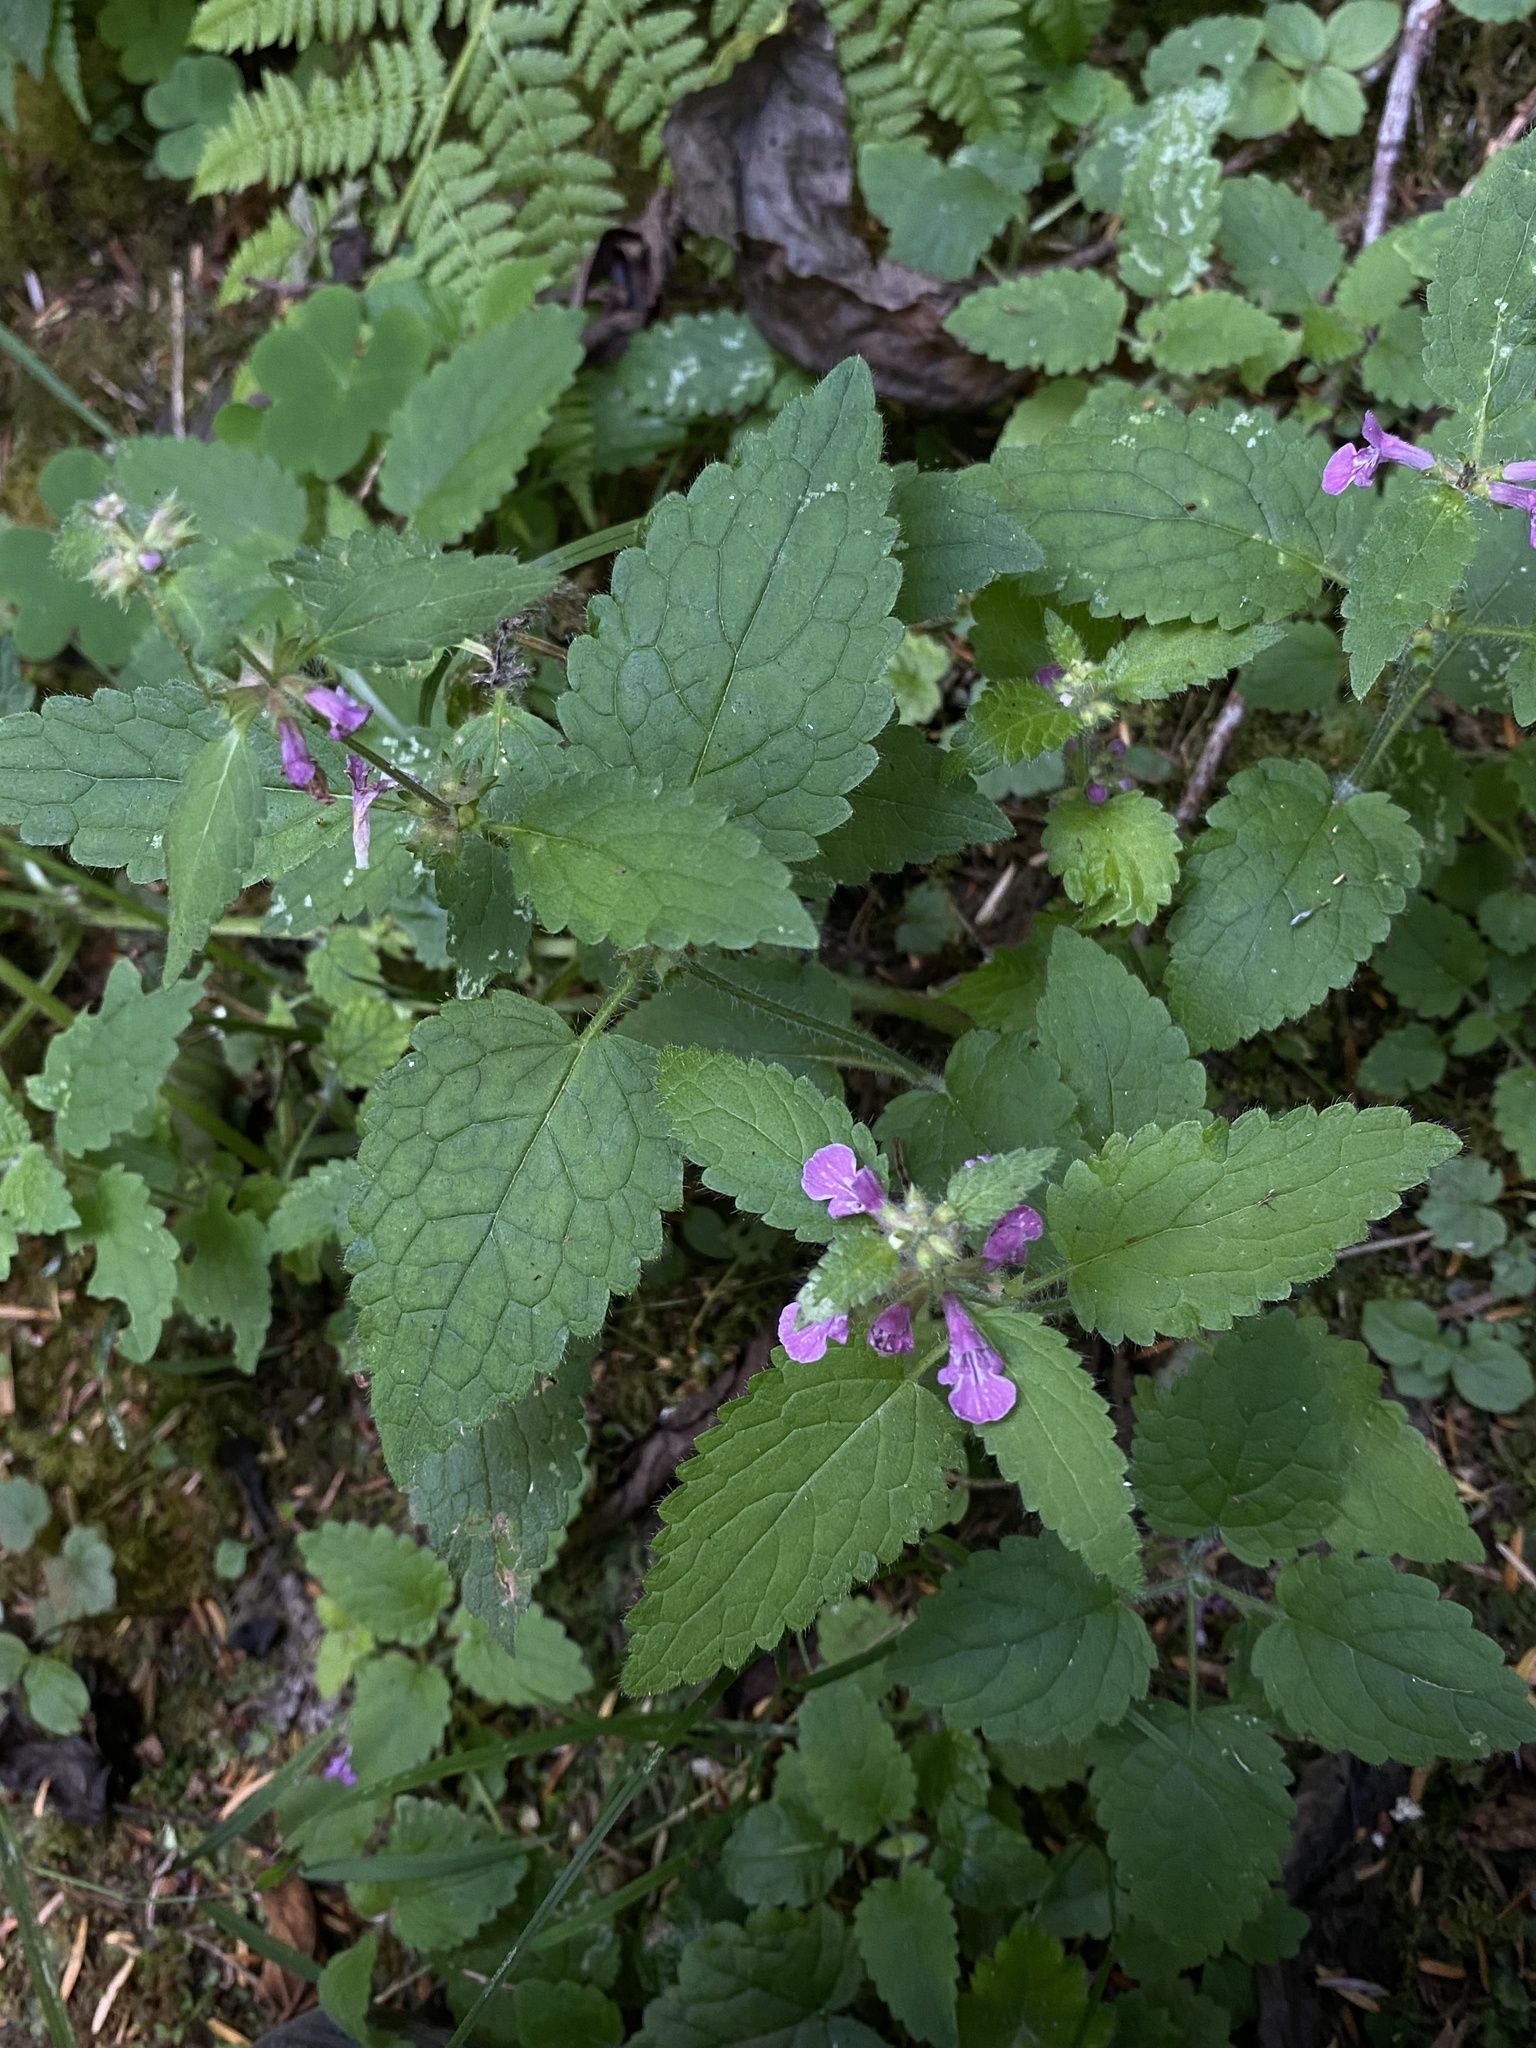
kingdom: Plantae
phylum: Tracheophyta
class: Magnoliopsida
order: Lamiales
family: Lamiaceae
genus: Stachys
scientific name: Stachys mexicana
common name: Mexican hedge-nettle
